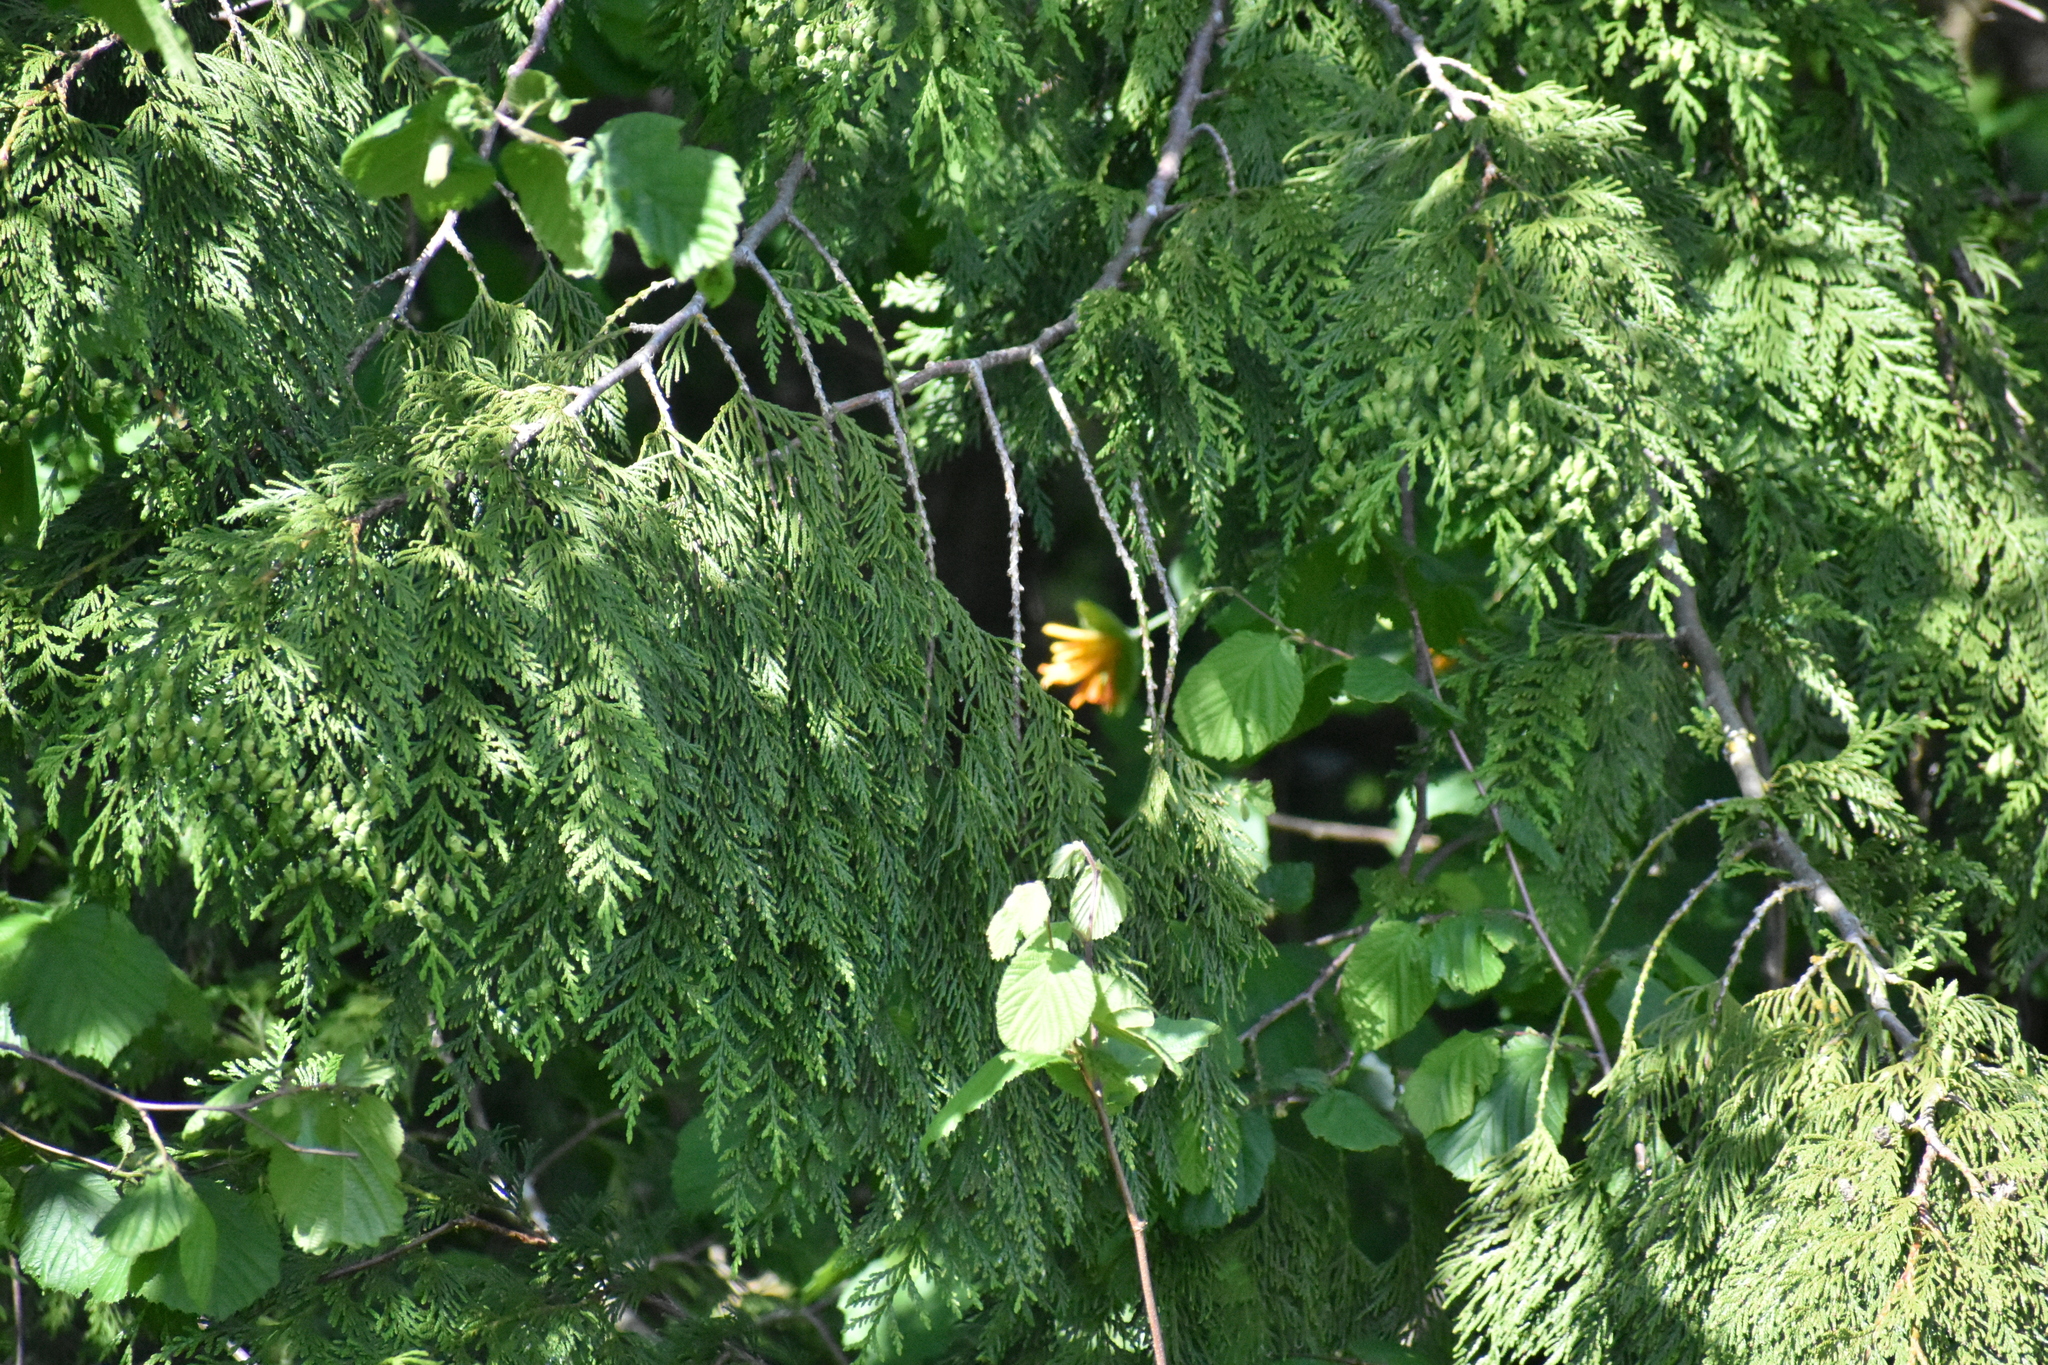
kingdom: Plantae
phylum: Tracheophyta
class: Magnoliopsida
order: Dipsacales
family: Caprifoliaceae
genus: Lonicera
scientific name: Lonicera ciliosa
